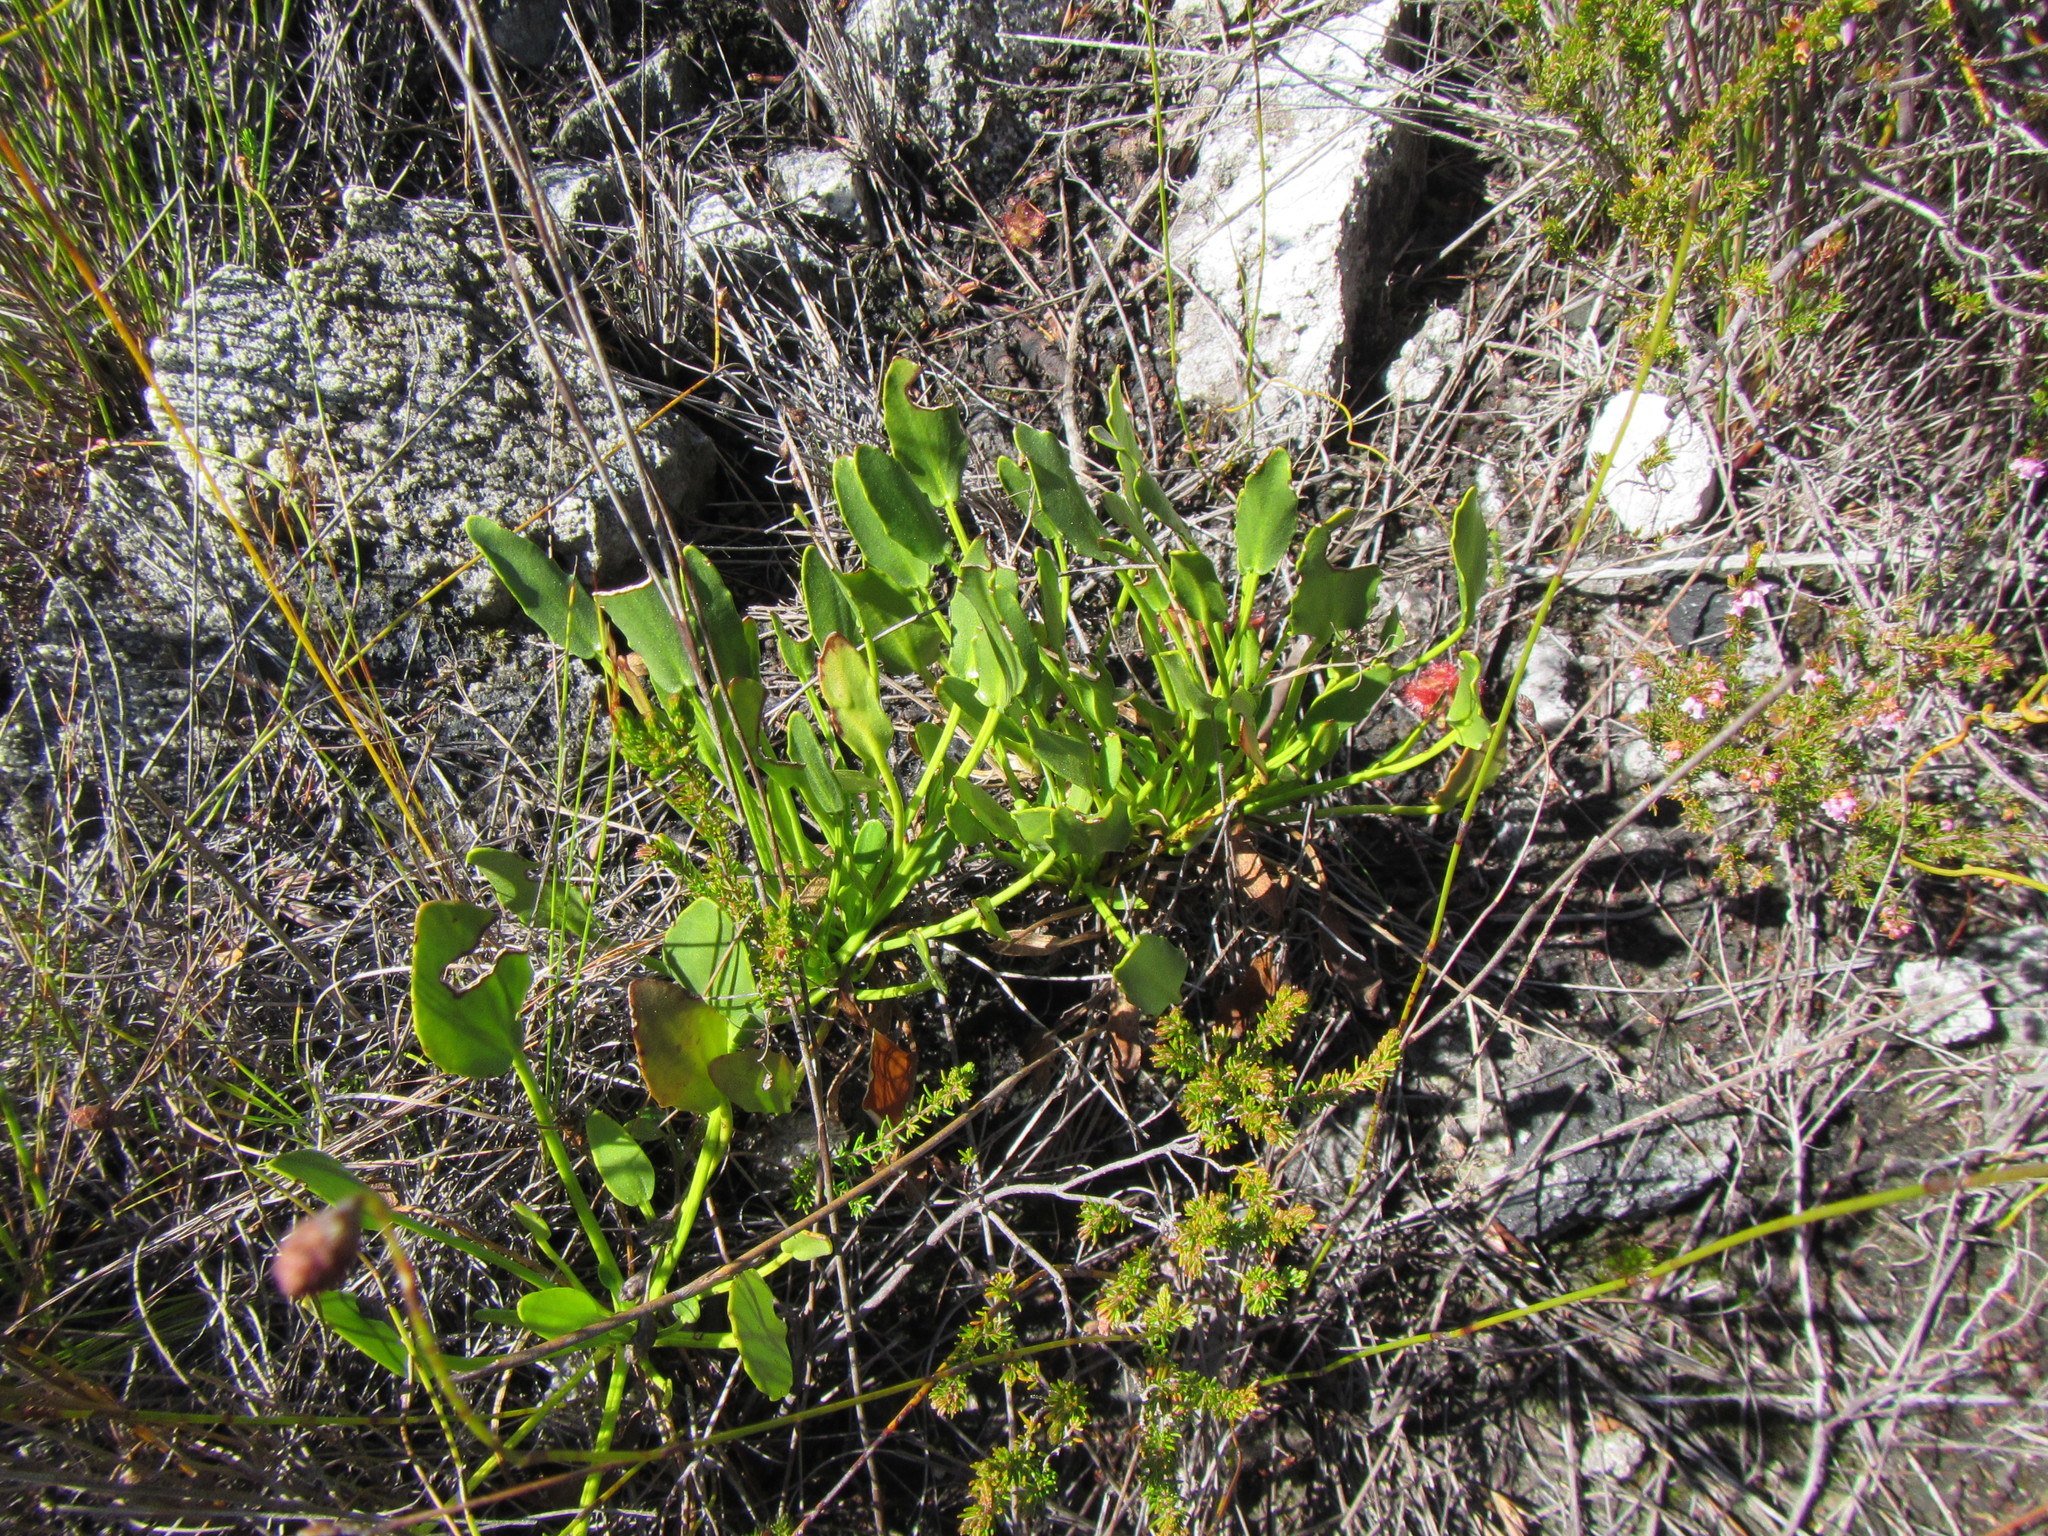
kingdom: Plantae
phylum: Tracheophyta
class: Magnoliopsida
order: Asterales
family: Menyanthaceae
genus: Villarsia
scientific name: Villarsia manningiana
